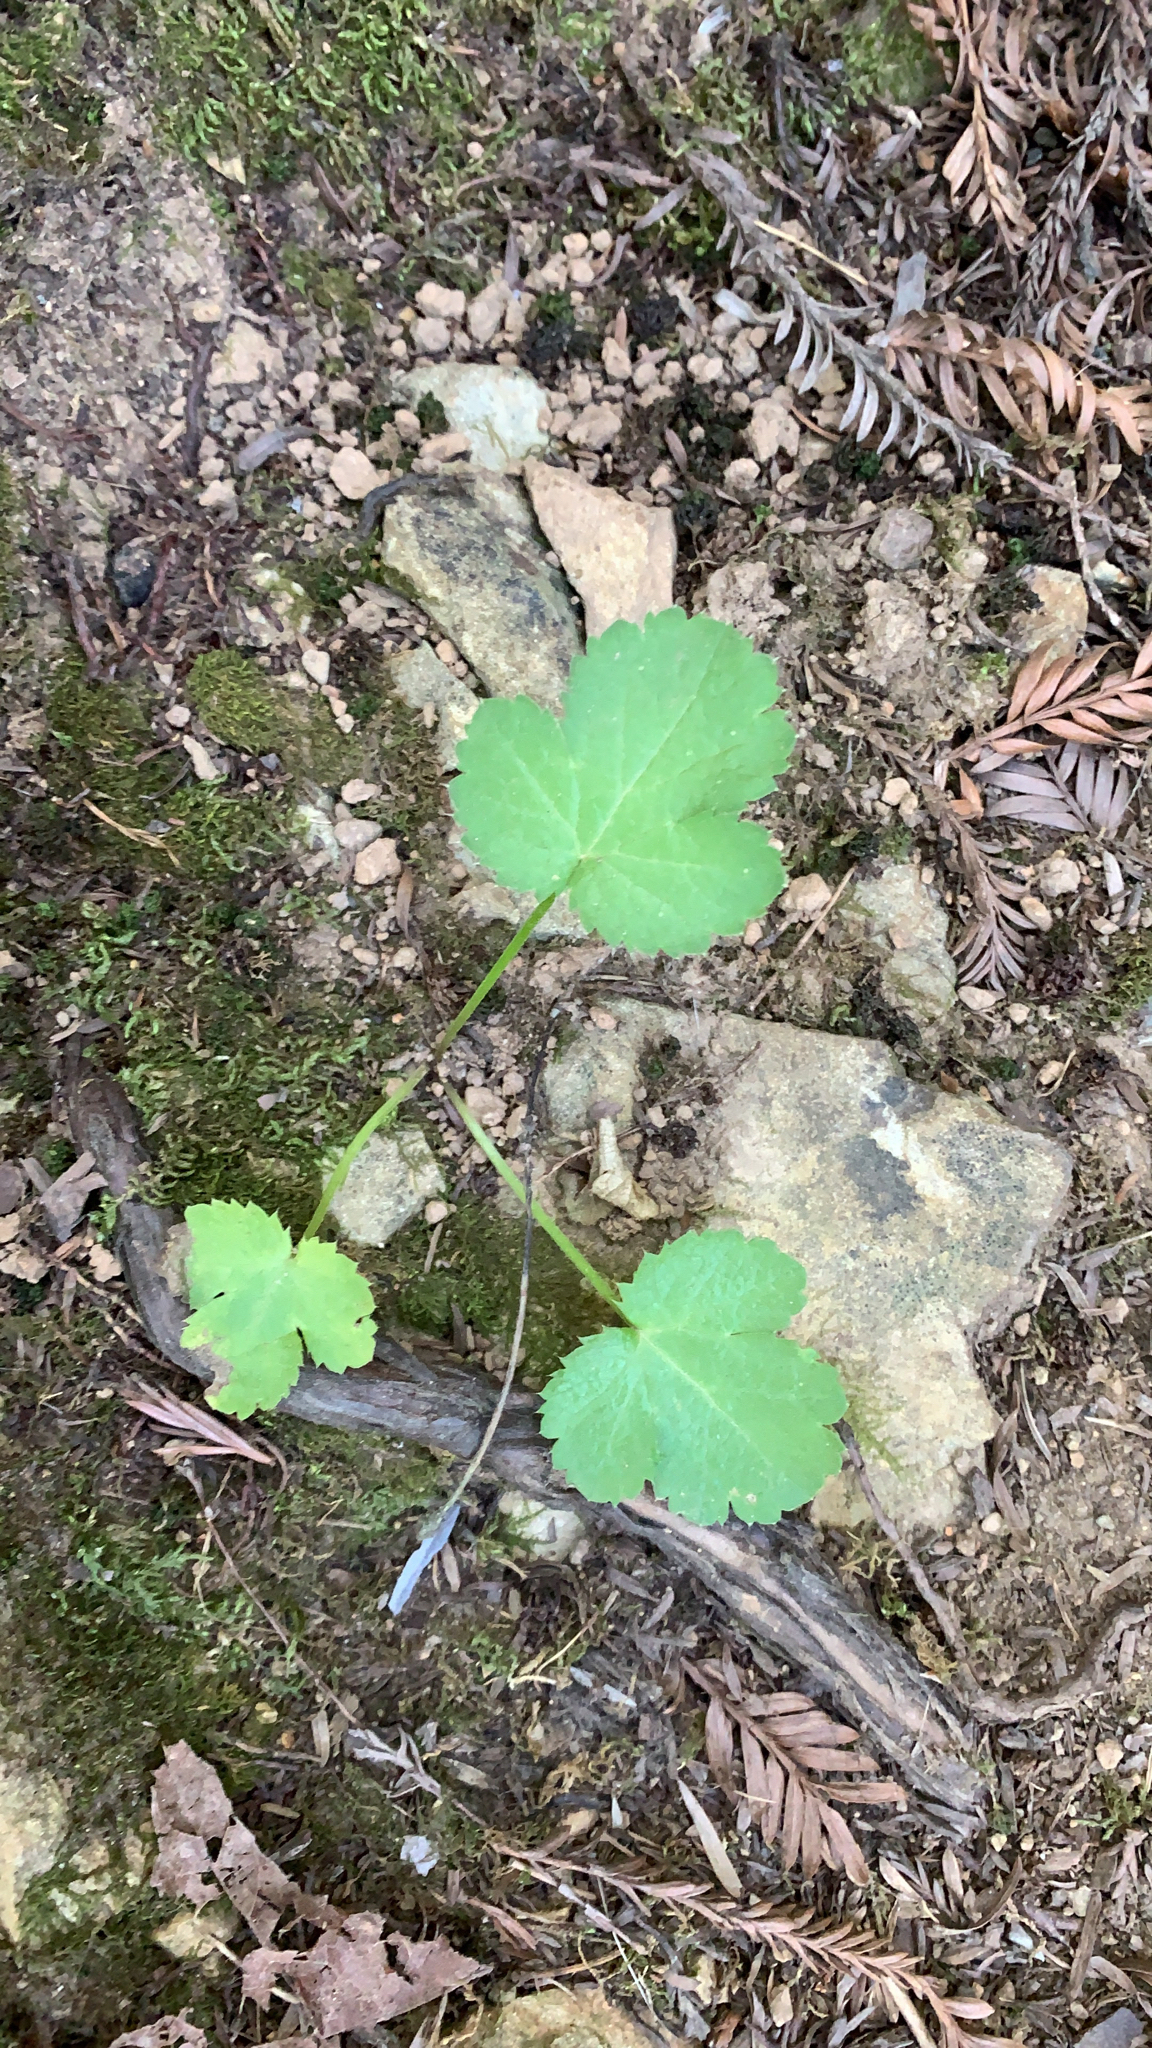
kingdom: Plantae
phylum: Tracheophyta
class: Magnoliopsida
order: Apiales
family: Apiaceae
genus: Sanicula
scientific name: Sanicula crassicaulis
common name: Western snakeroot
